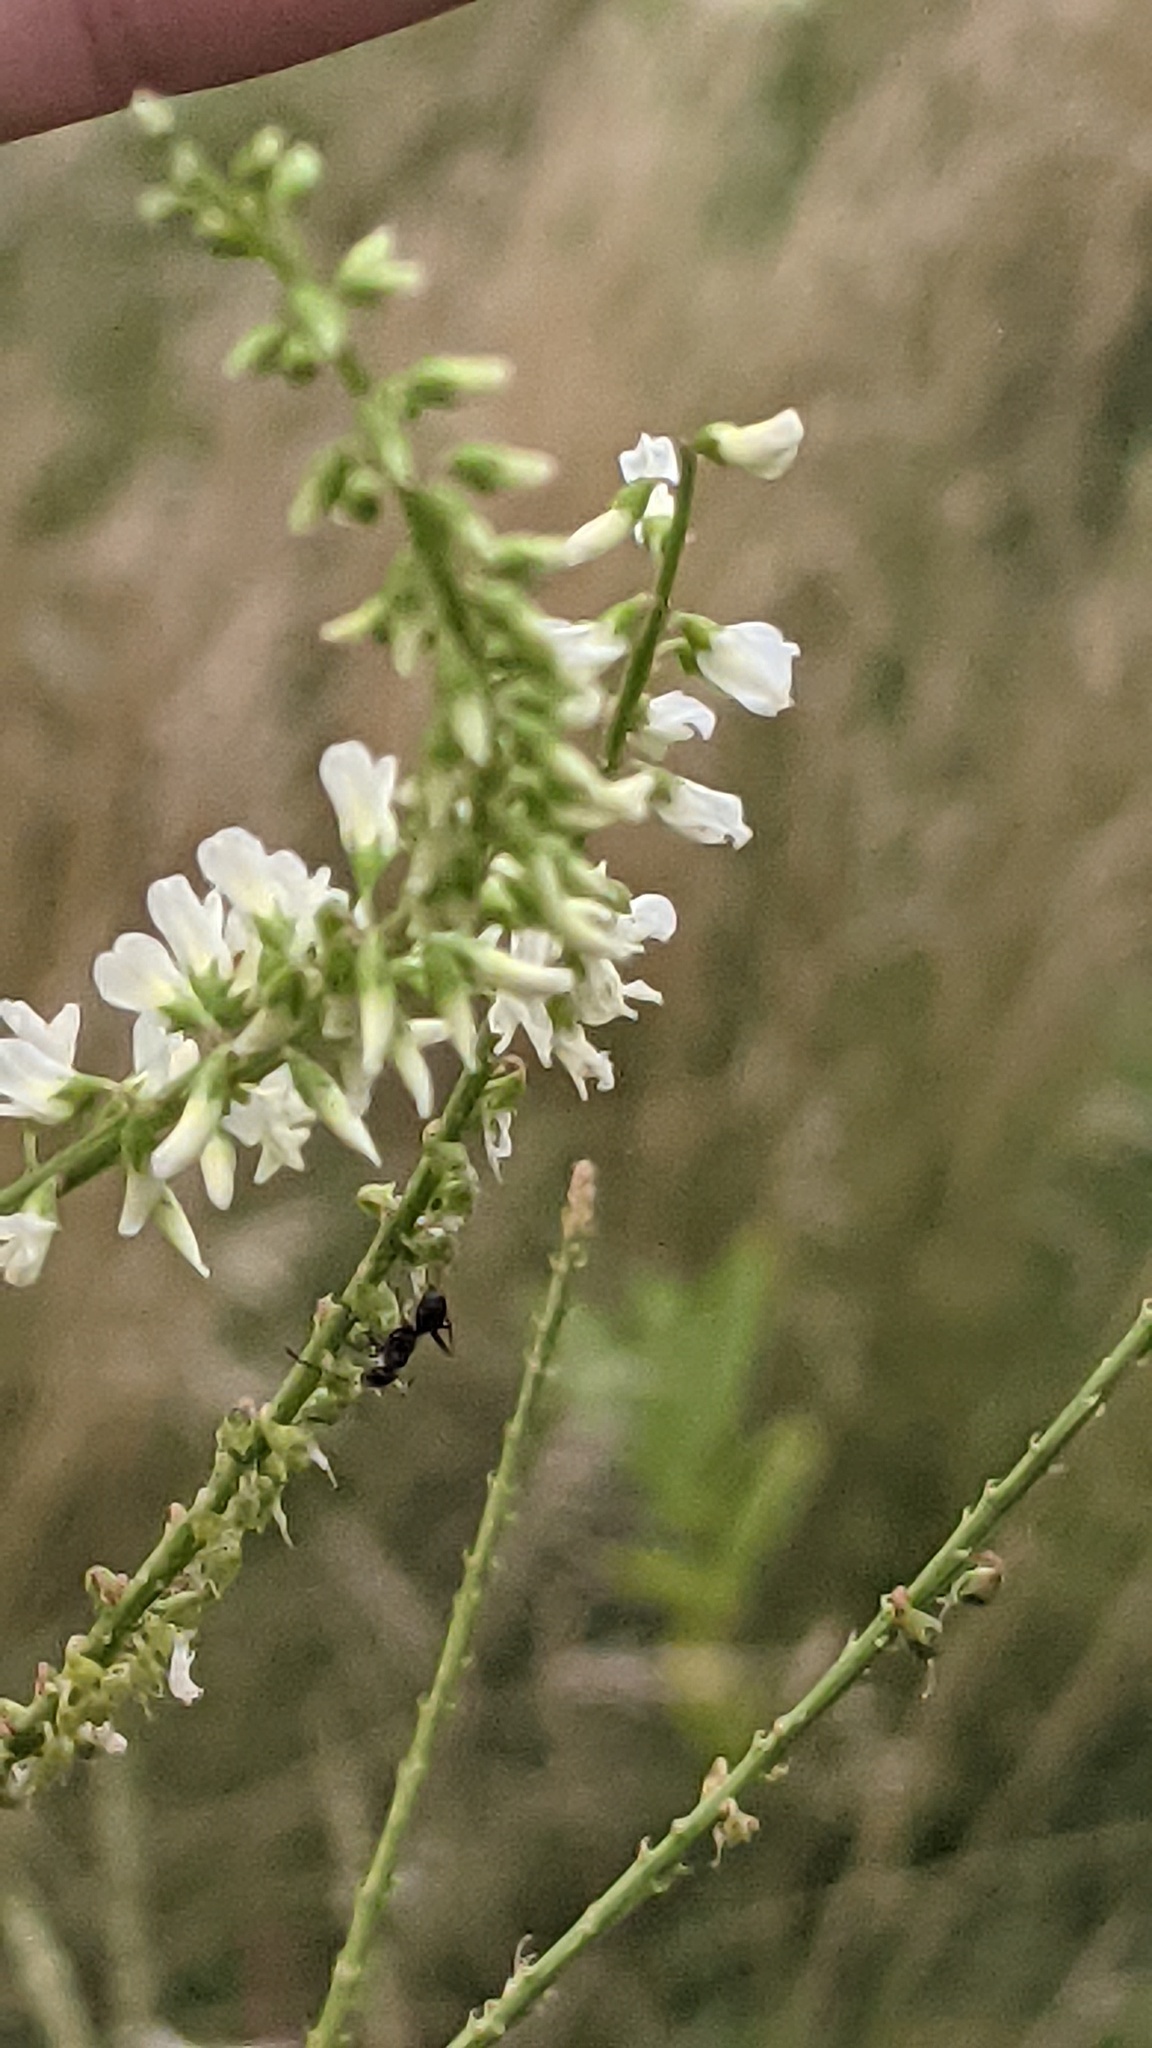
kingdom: Plantae
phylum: Tracheophyta
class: Magnoliopsida
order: Fabales
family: Fabaceae
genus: Melilotus
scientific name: Melilotus albus
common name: White melilot
